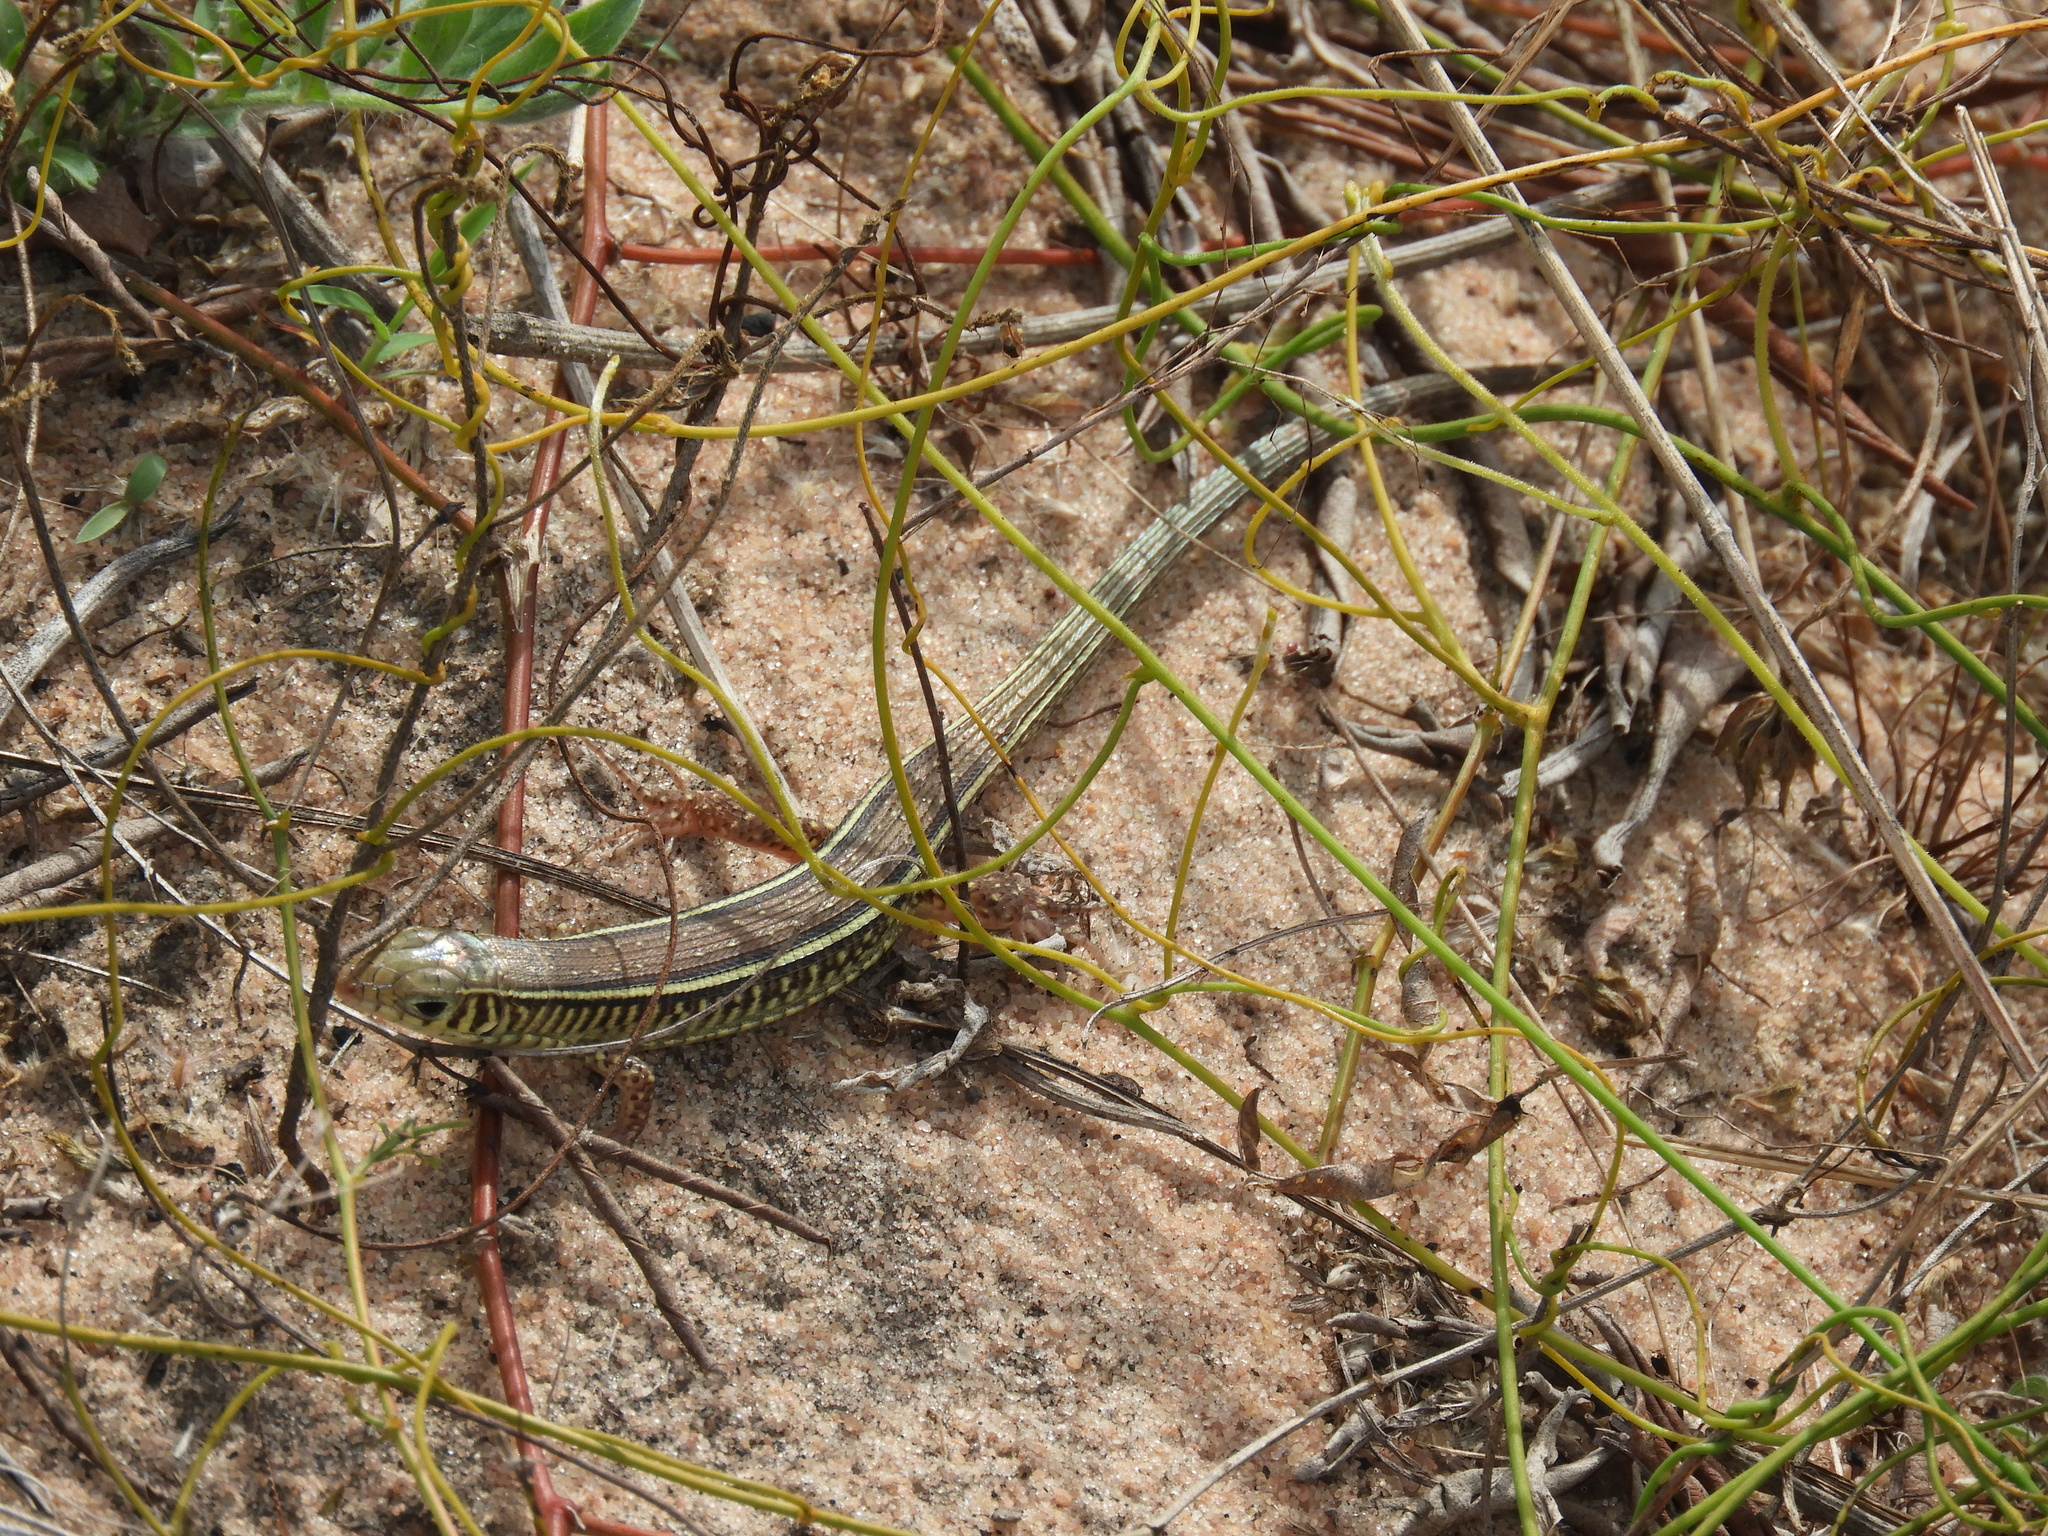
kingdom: Animalia
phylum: Chordata
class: Squamata
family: Gerrhosauridae
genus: Gerrhosaurus
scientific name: Gerrhosaurus flavigularis
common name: Yellow-throated plated lizard
